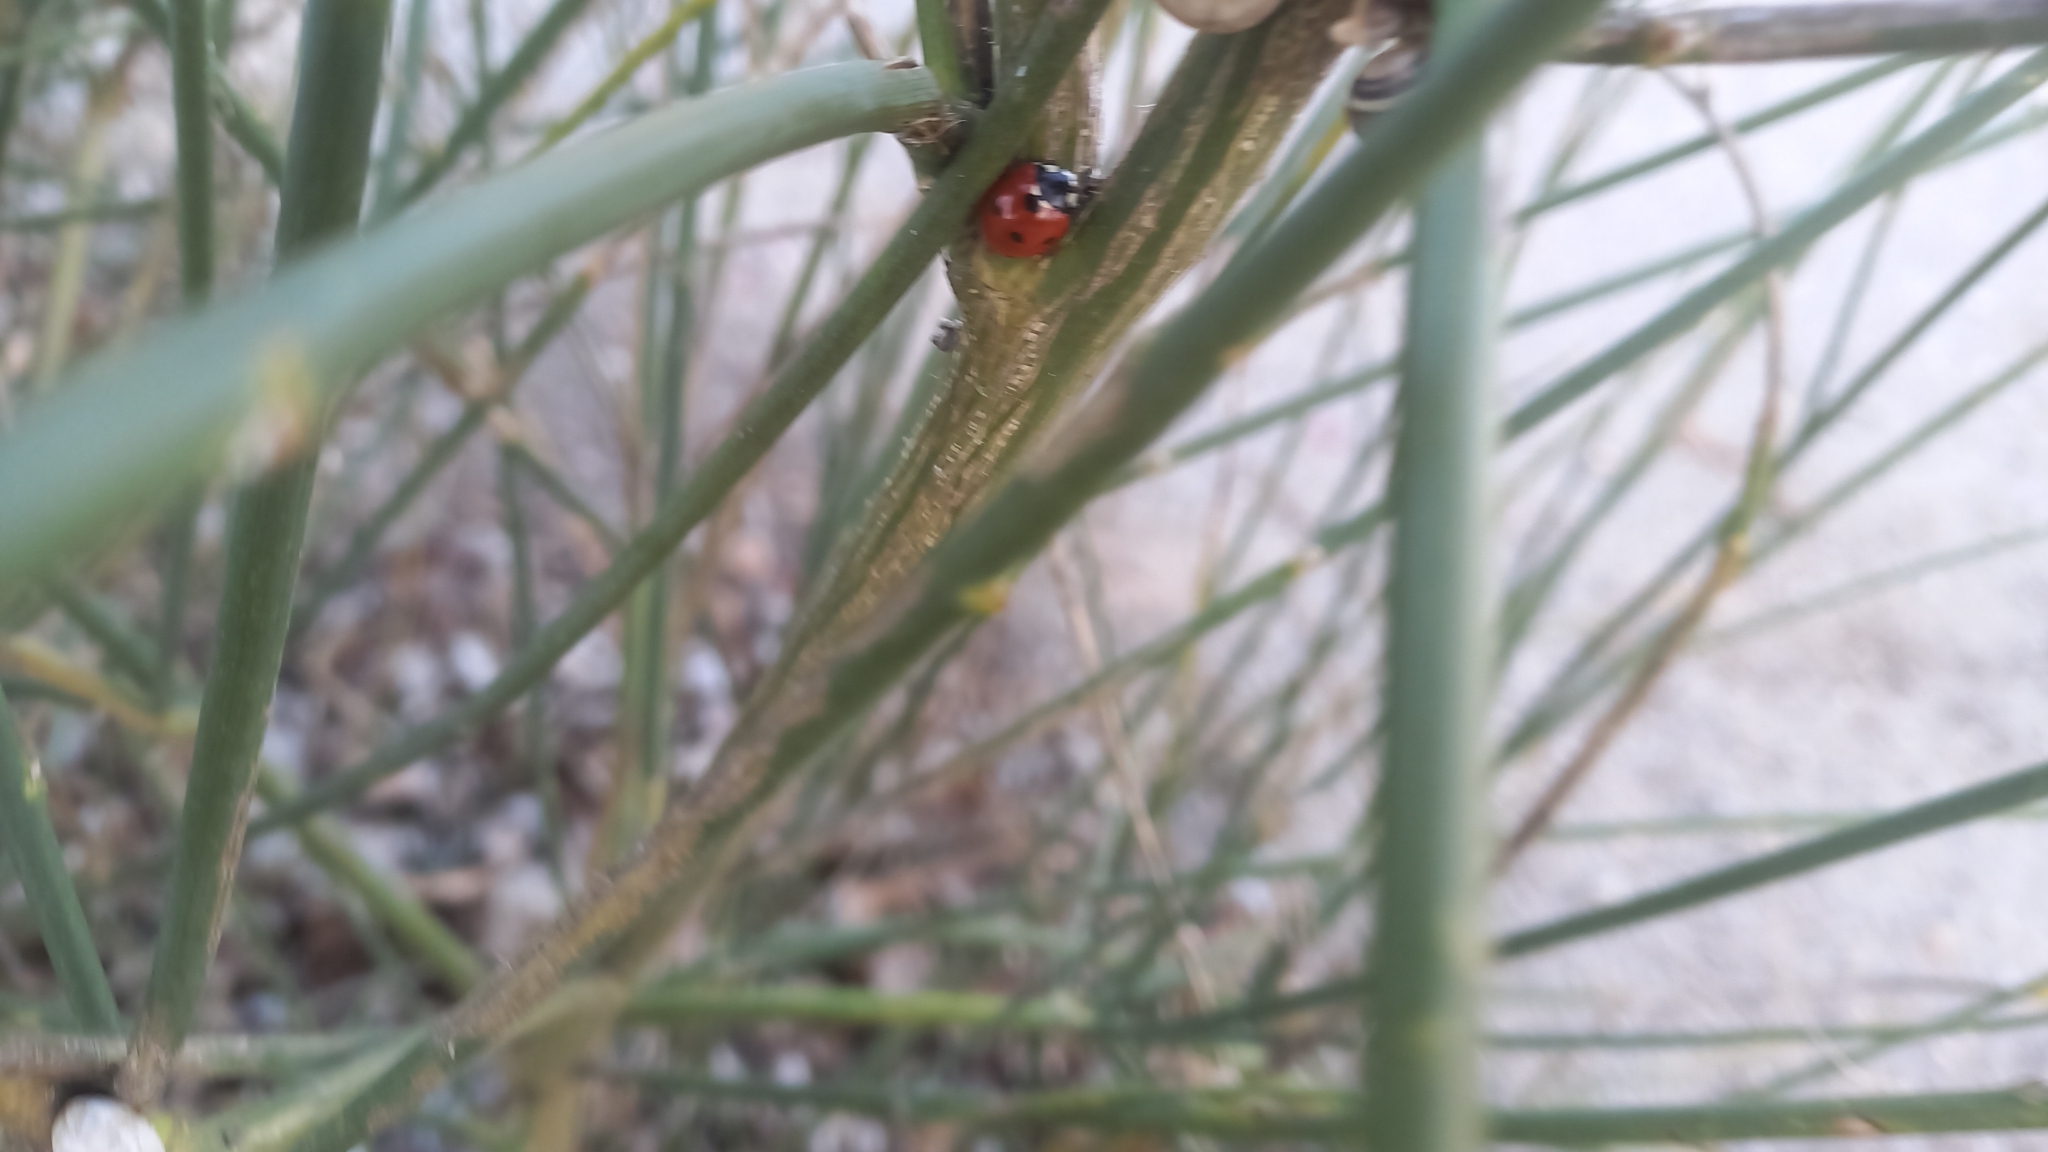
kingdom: Animalia
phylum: Arthropoda
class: Insecta
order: Coleoptera
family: Coccinellidae
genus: Coccinella
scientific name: Coccinella septempunctata
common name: Sevenspotted lady beetle
